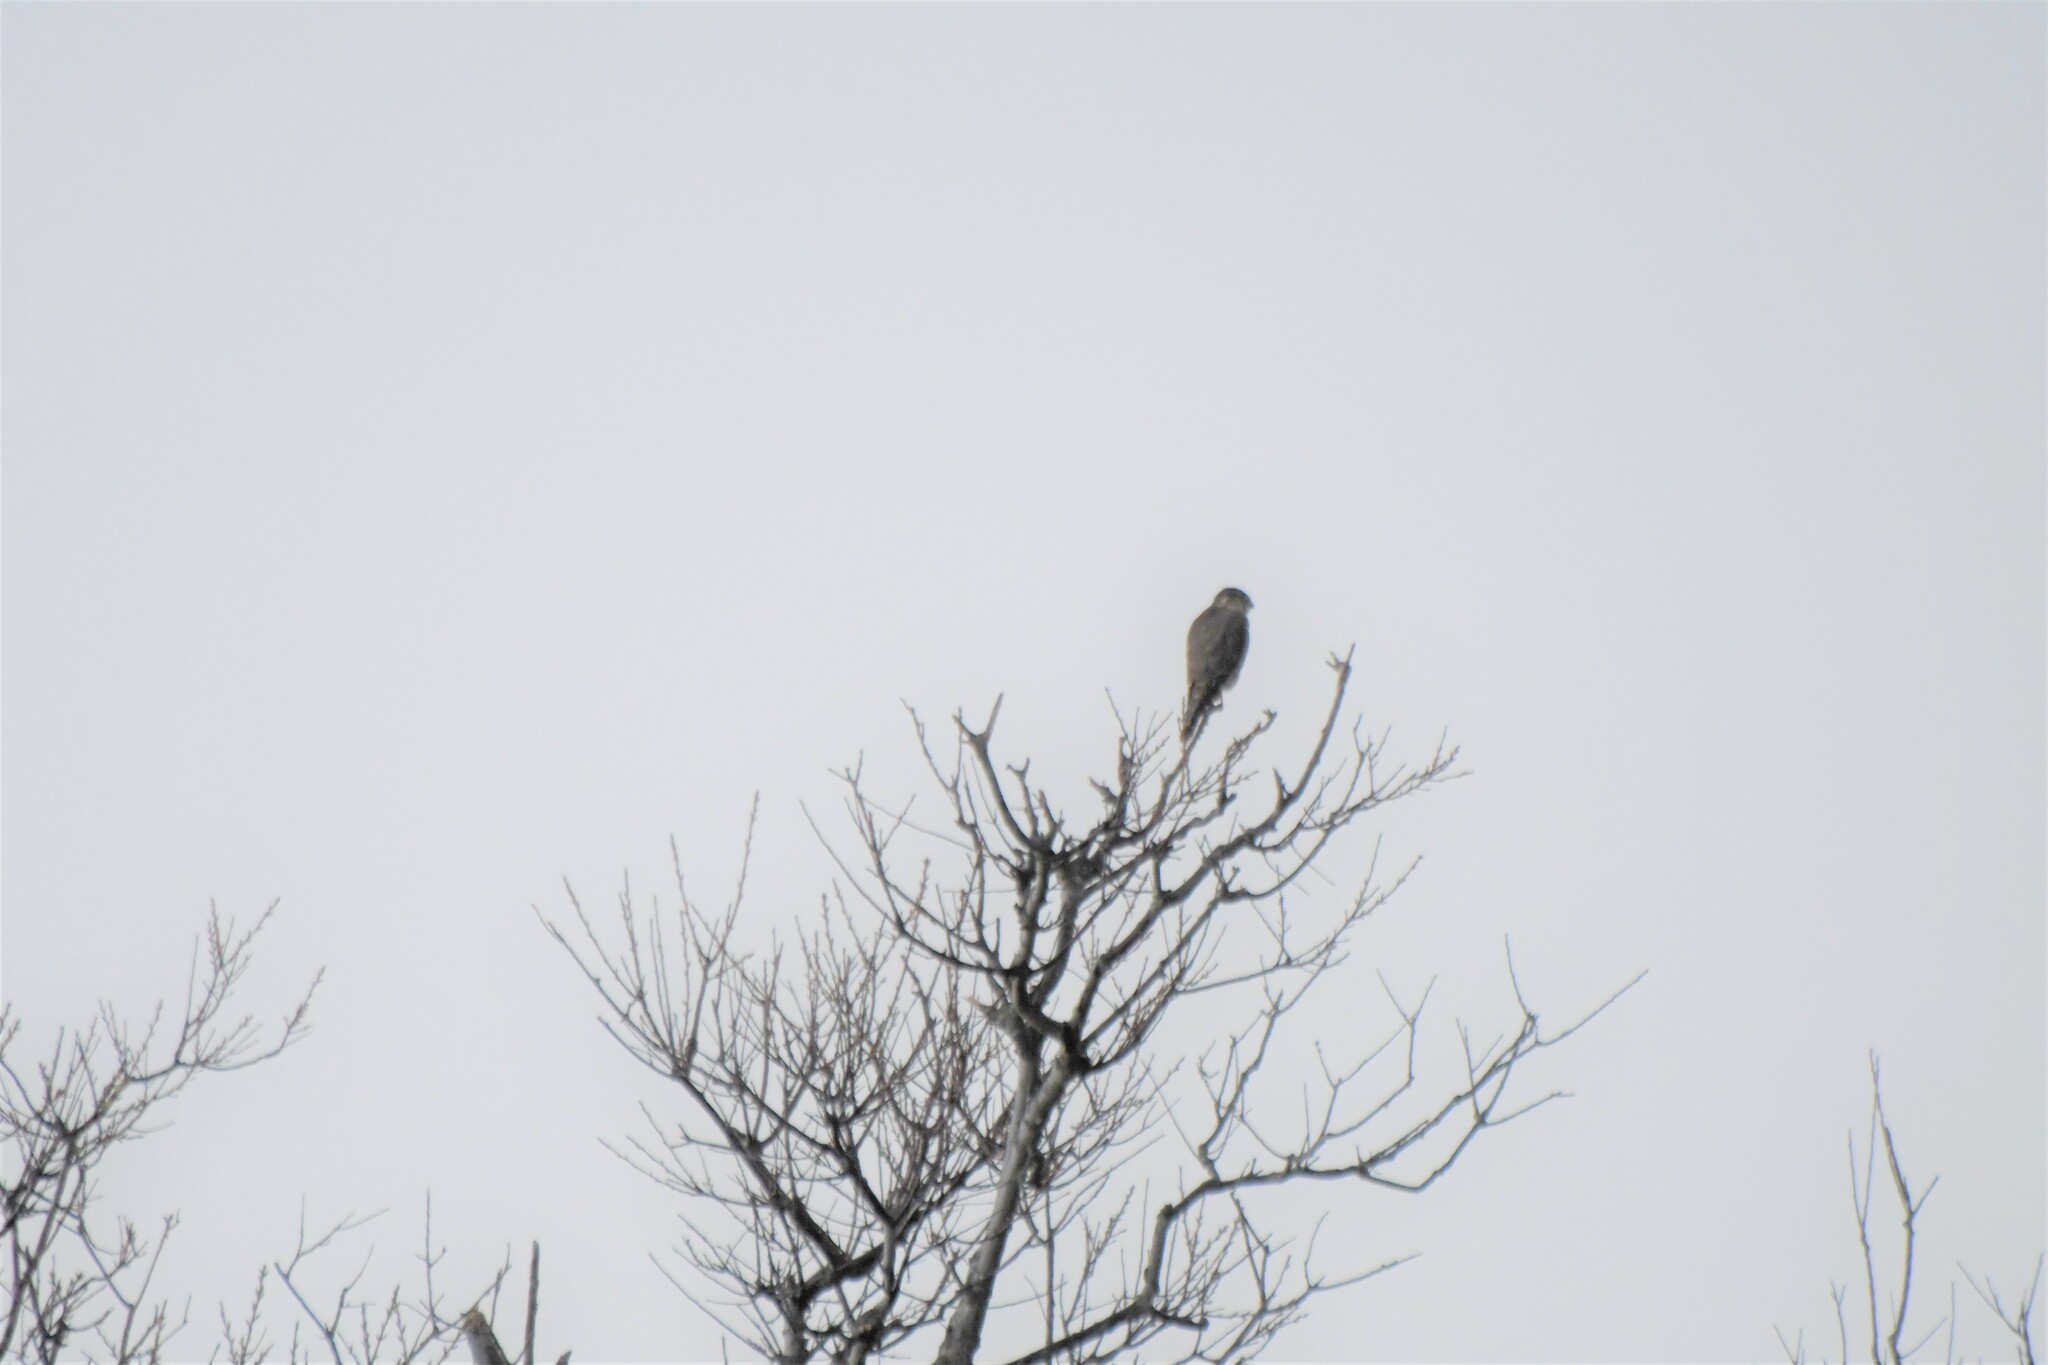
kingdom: Animalia
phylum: Chordata
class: Aves
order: Falconiformes
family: Falconidae
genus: Falco
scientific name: Falco columbarius
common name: Merlin
